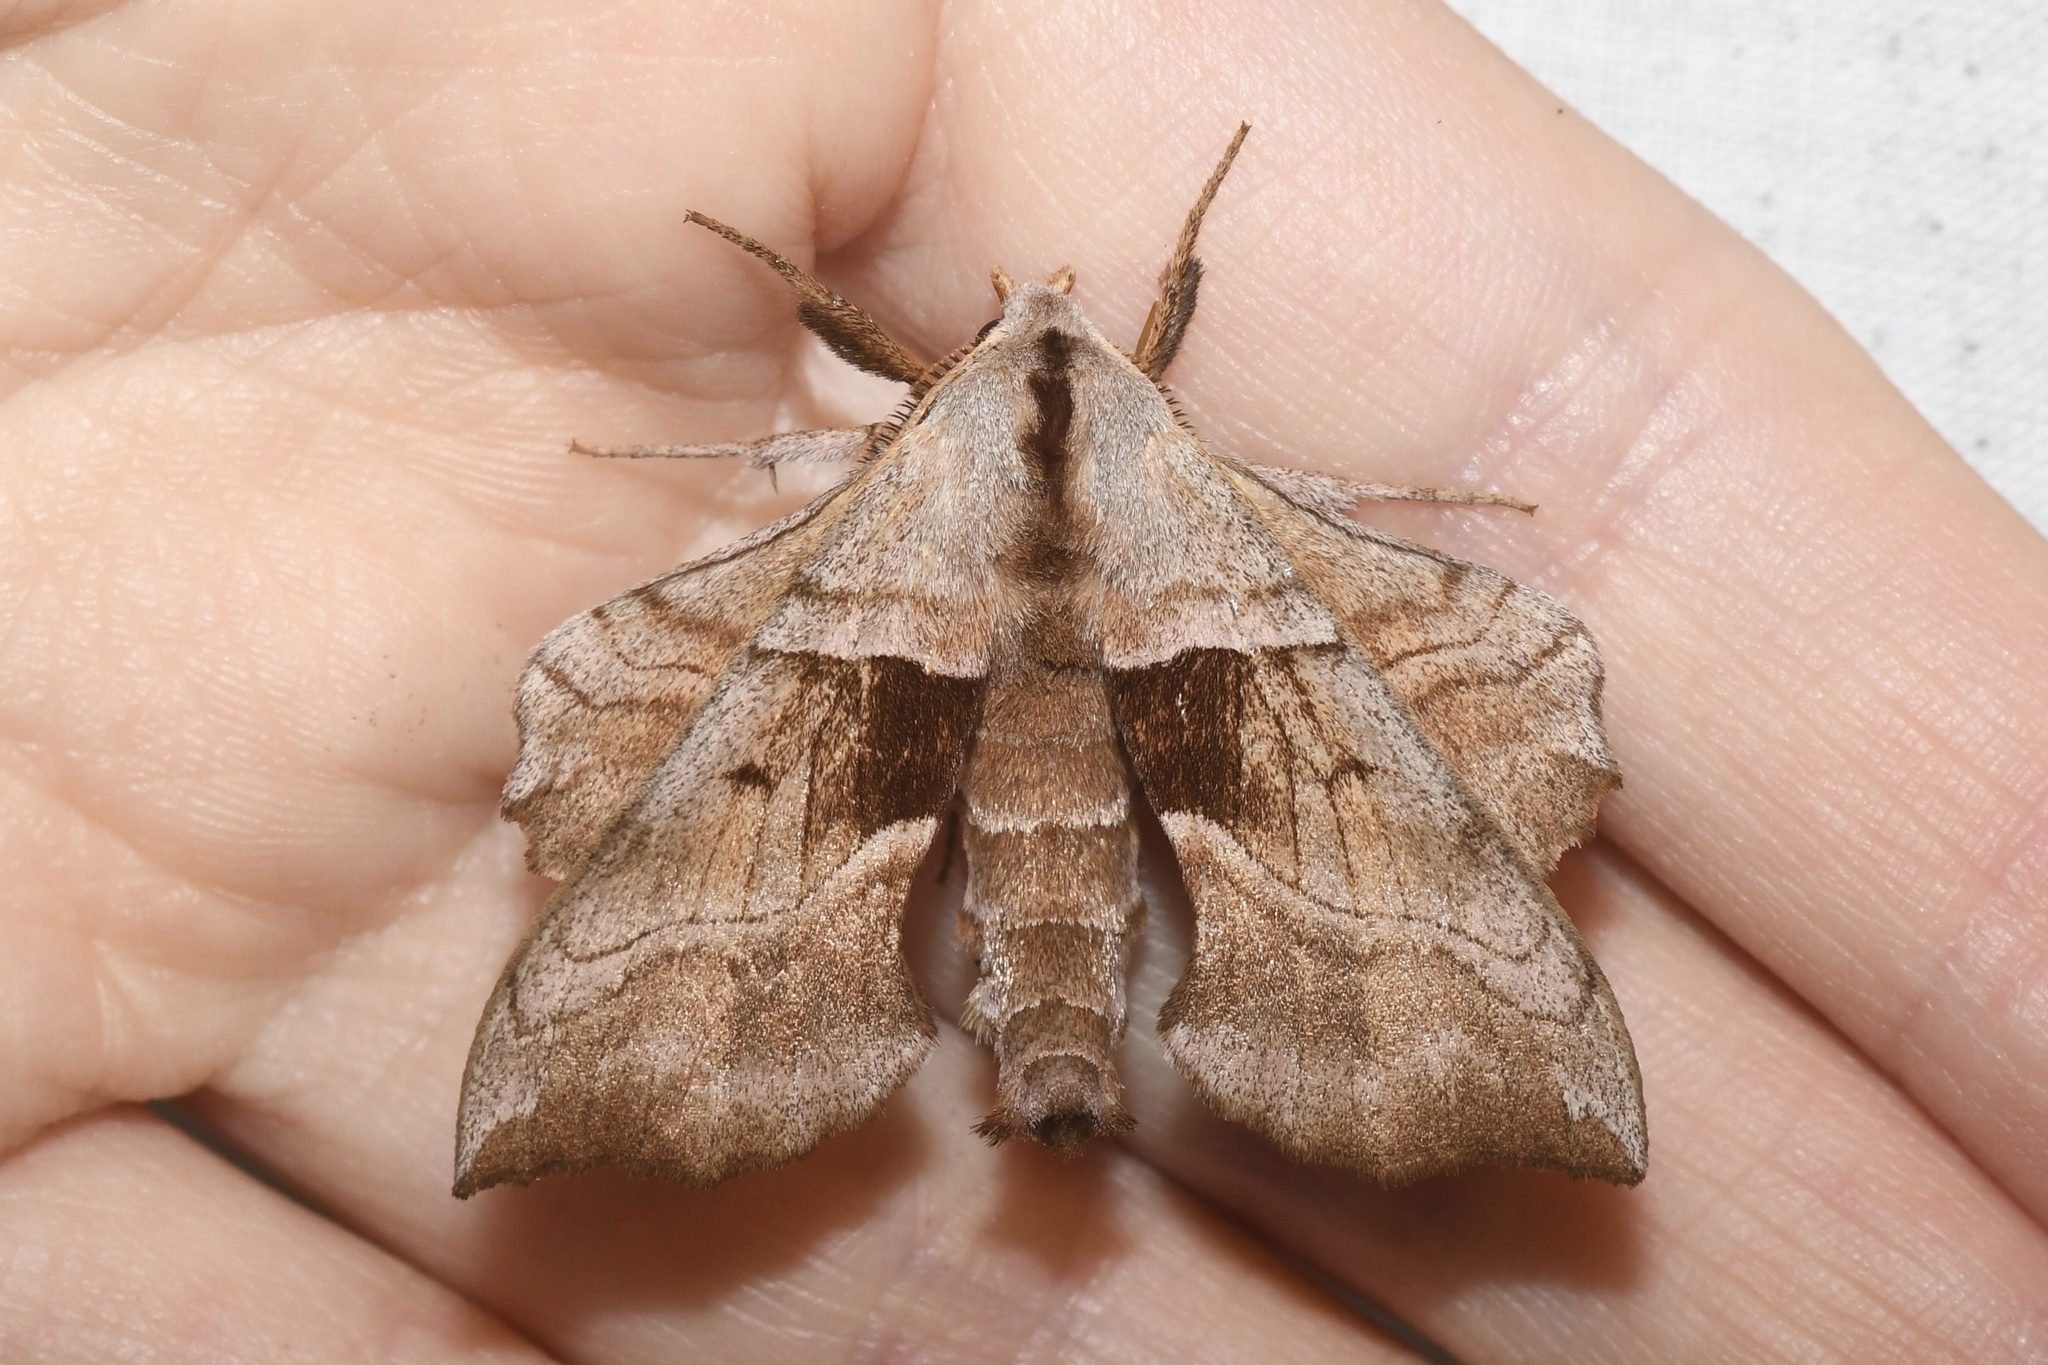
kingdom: Animalia
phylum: Arthropoda
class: Insecta
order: Lepidoptera
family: Sphingidae
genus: Amorpha
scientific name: Amorpha juglandis
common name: Walnut sphinx
